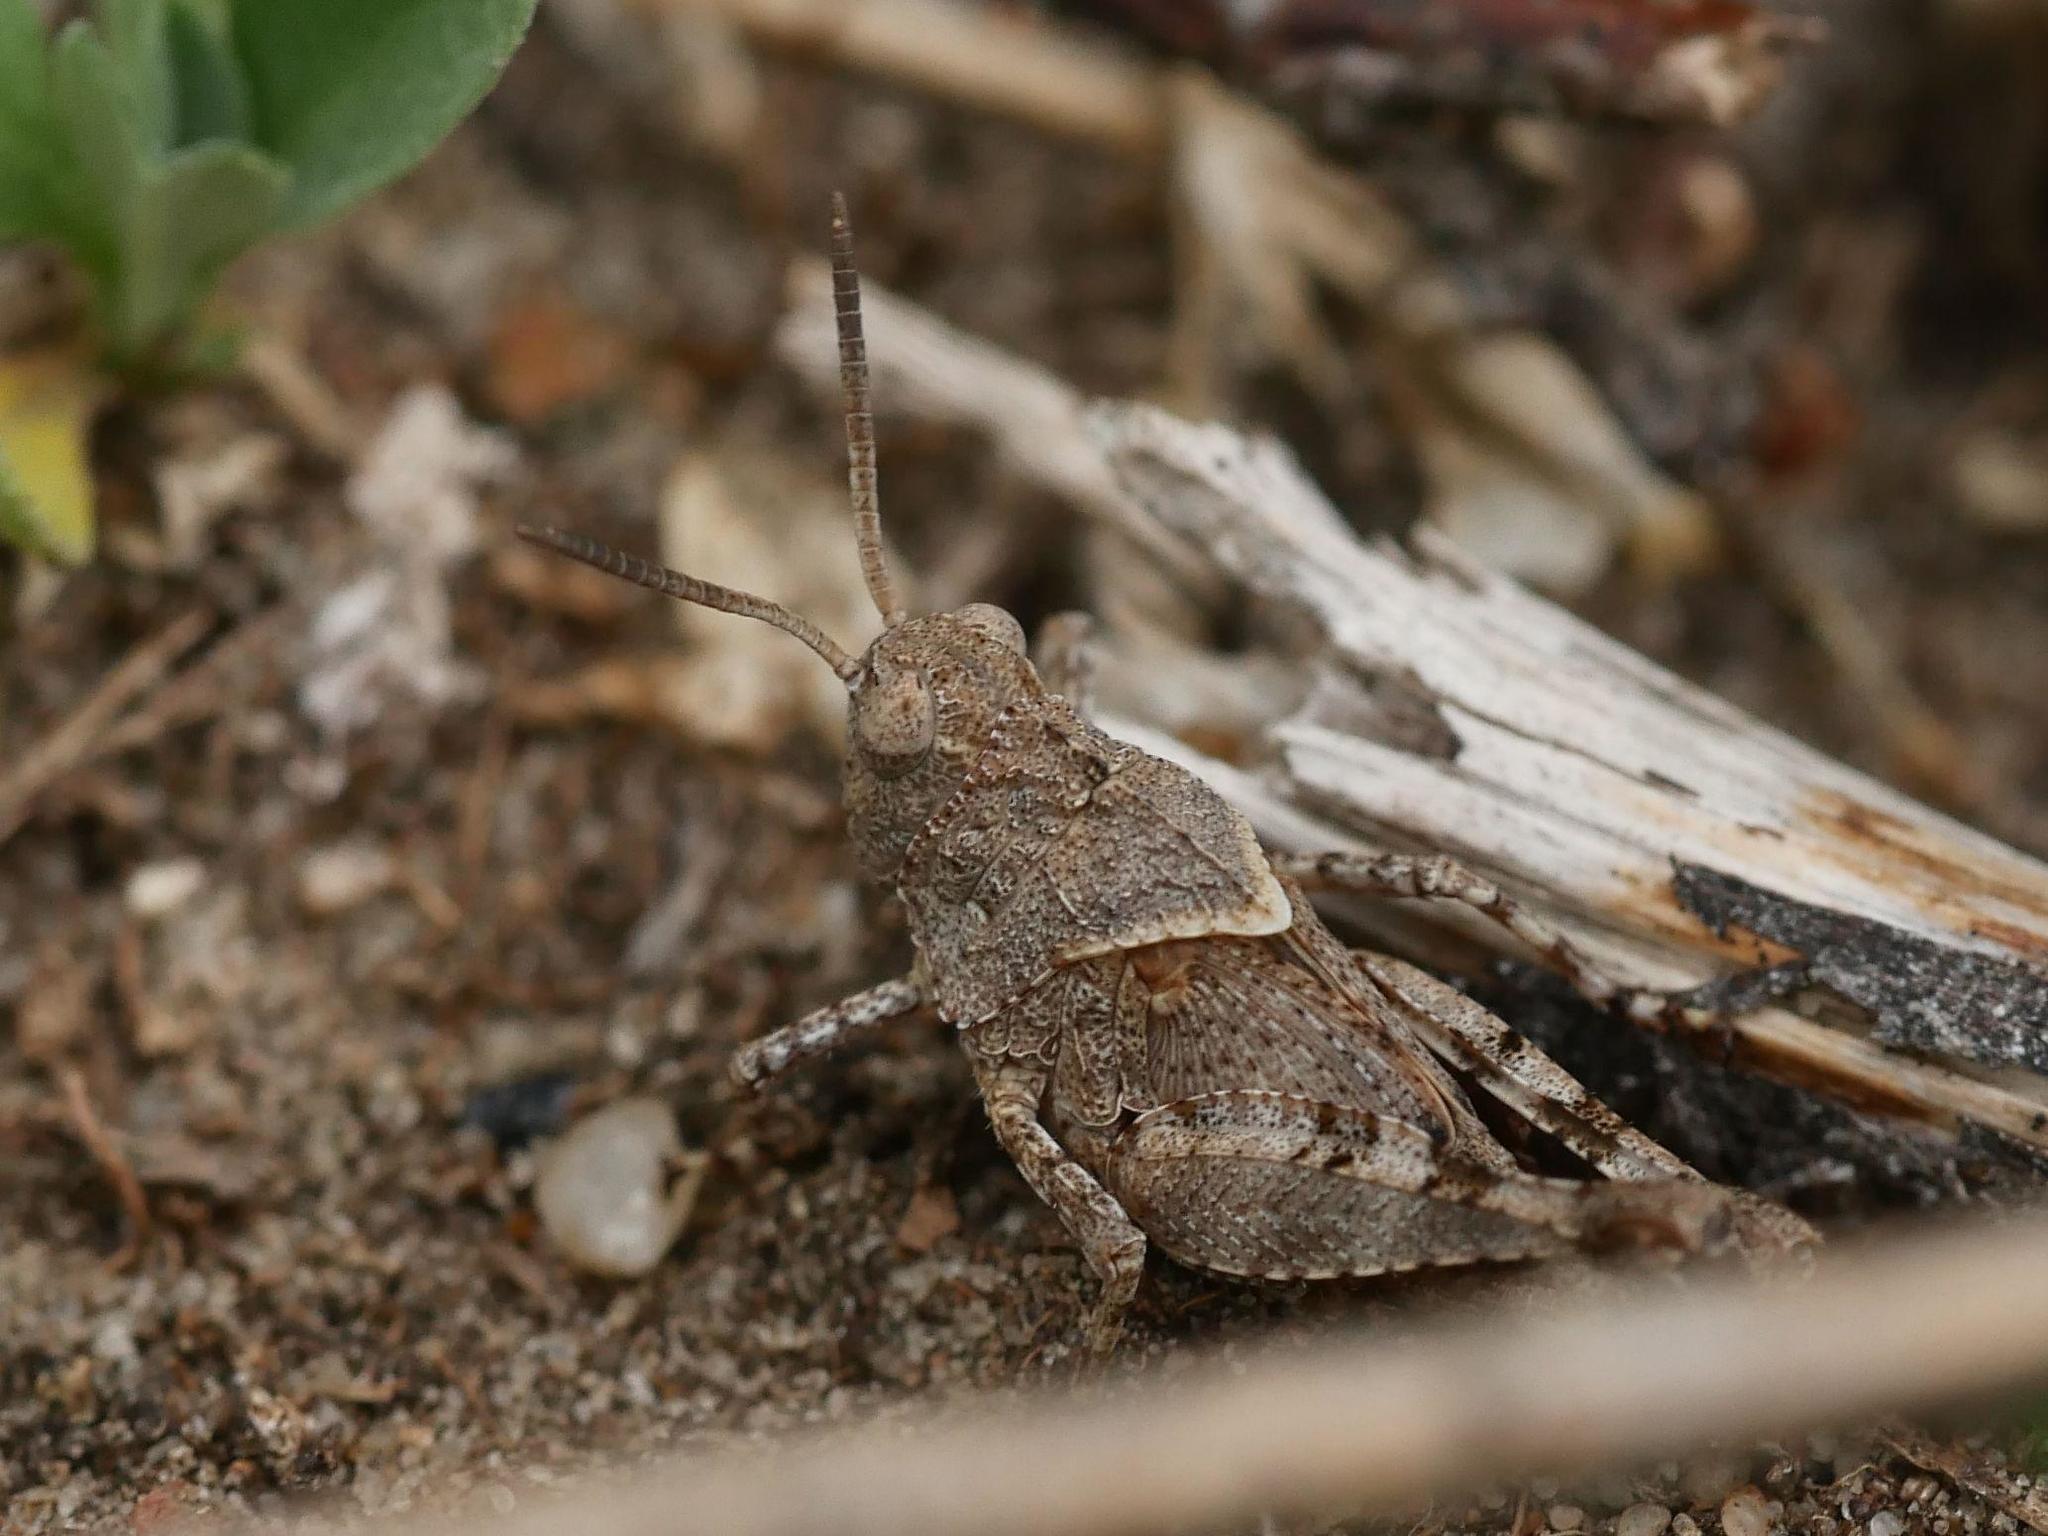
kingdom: Animalia
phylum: Arthropoda
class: Insecta
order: Orthoptera
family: Acrididae
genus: Oedipoda
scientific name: Oedipoda caerulescens
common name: Blue-winged grasshopper
